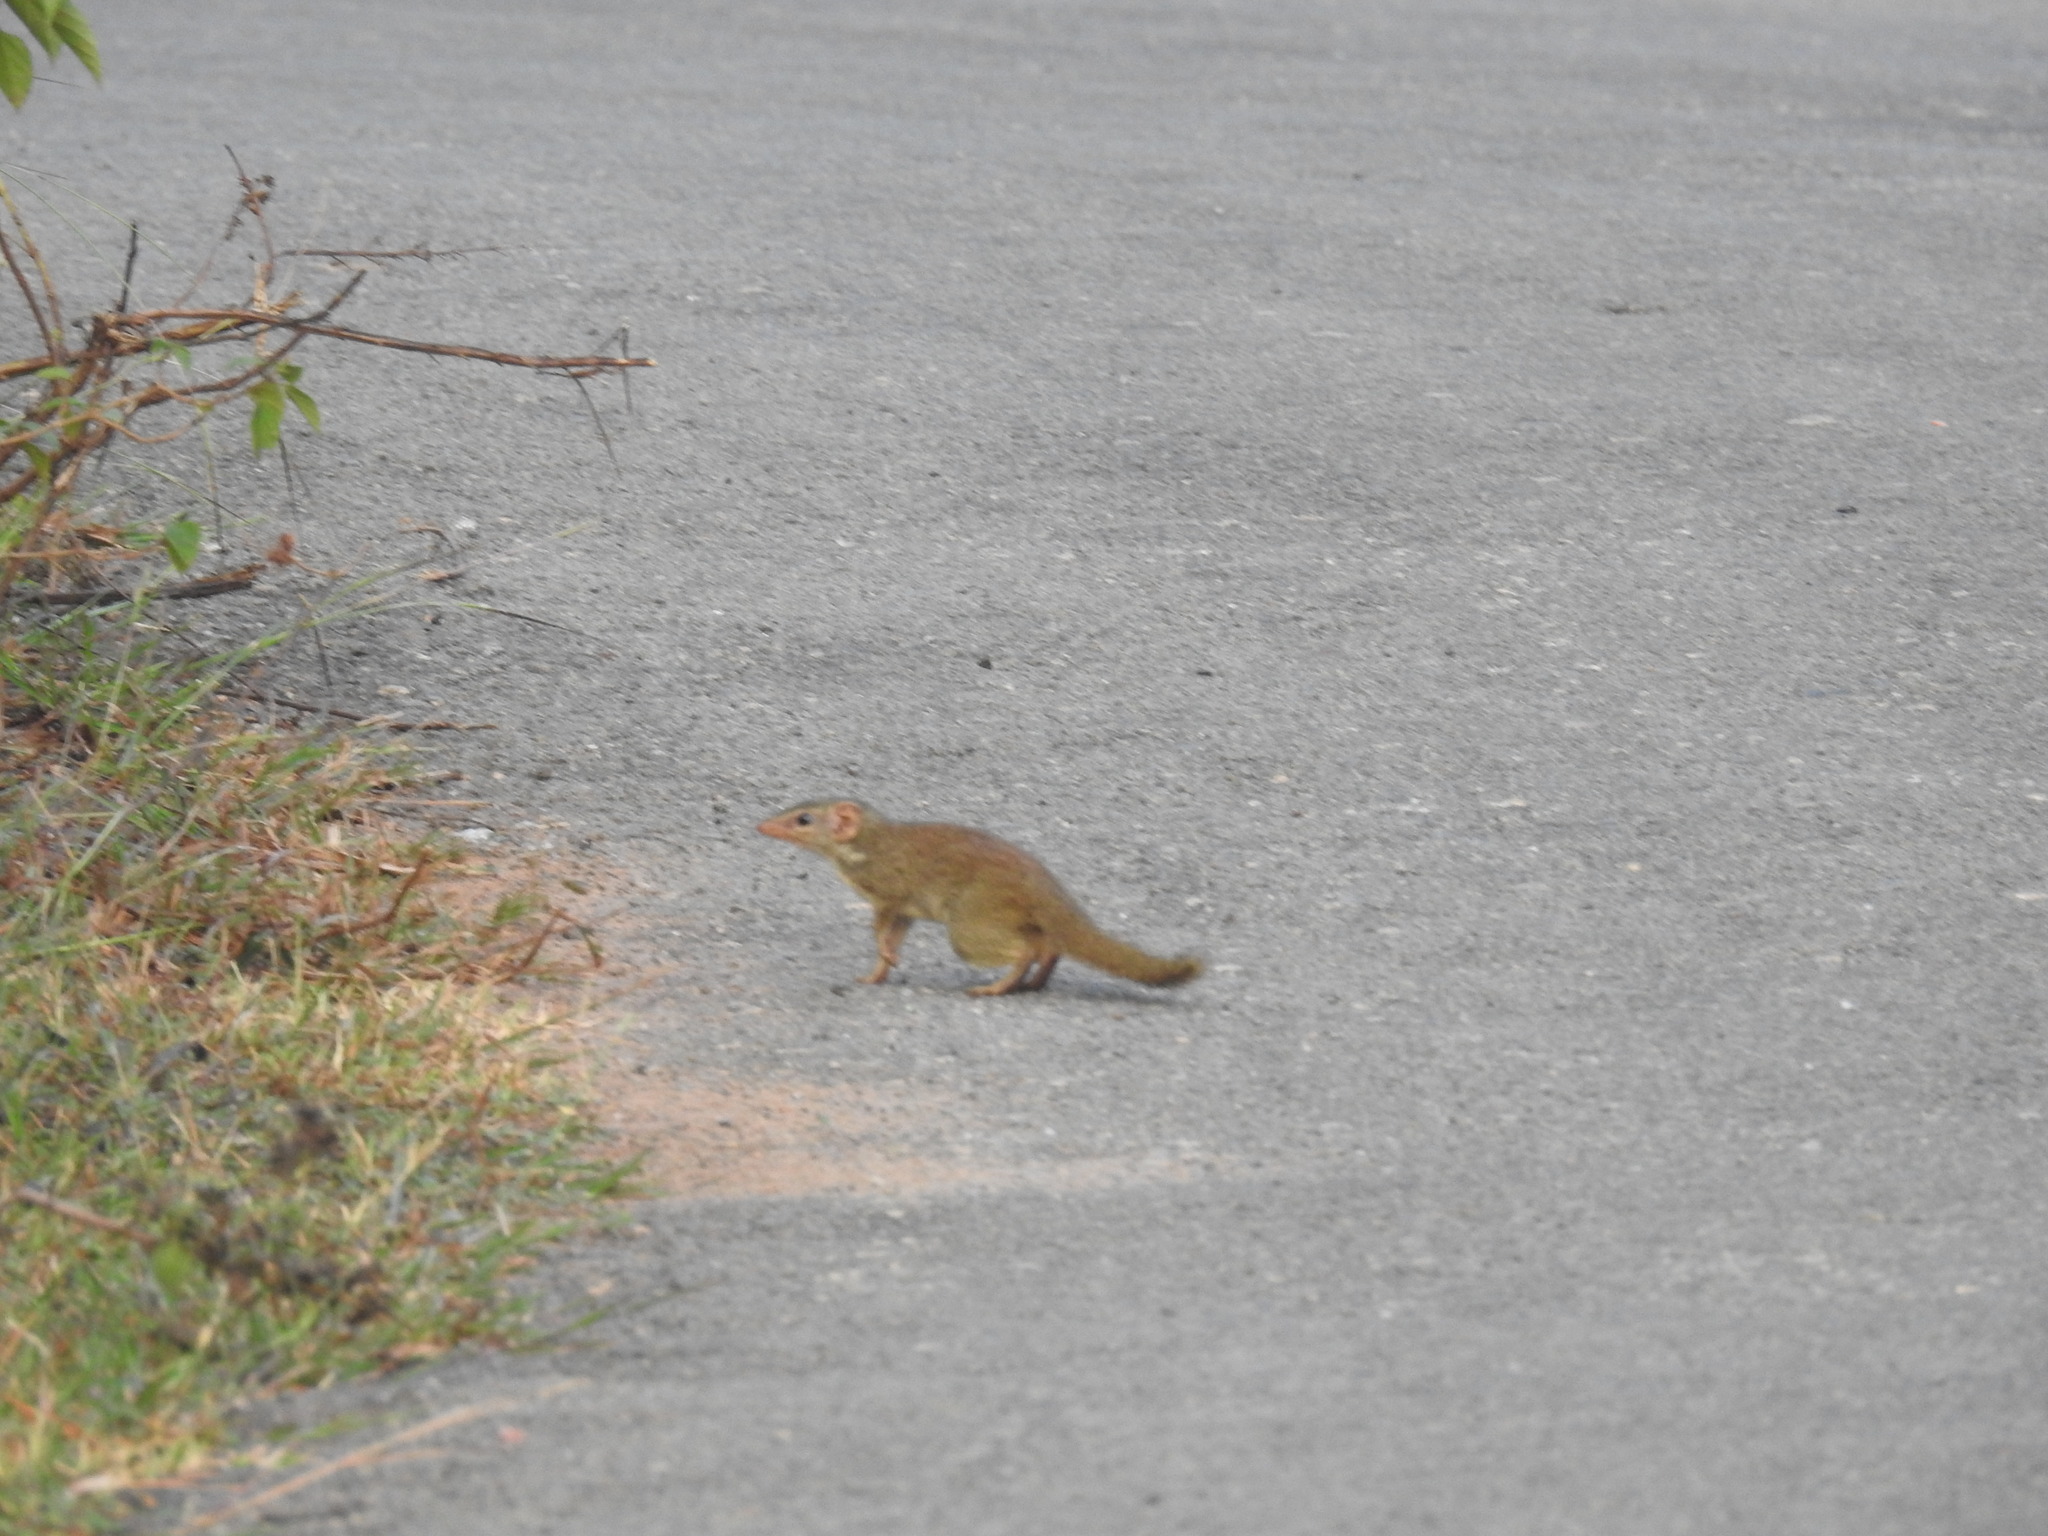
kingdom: Animalia
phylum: Chordata
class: Mammalia
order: Scandentia
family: Tupaiidae
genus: Anathana
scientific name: Anathana ellioti
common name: Madras treeshrew
